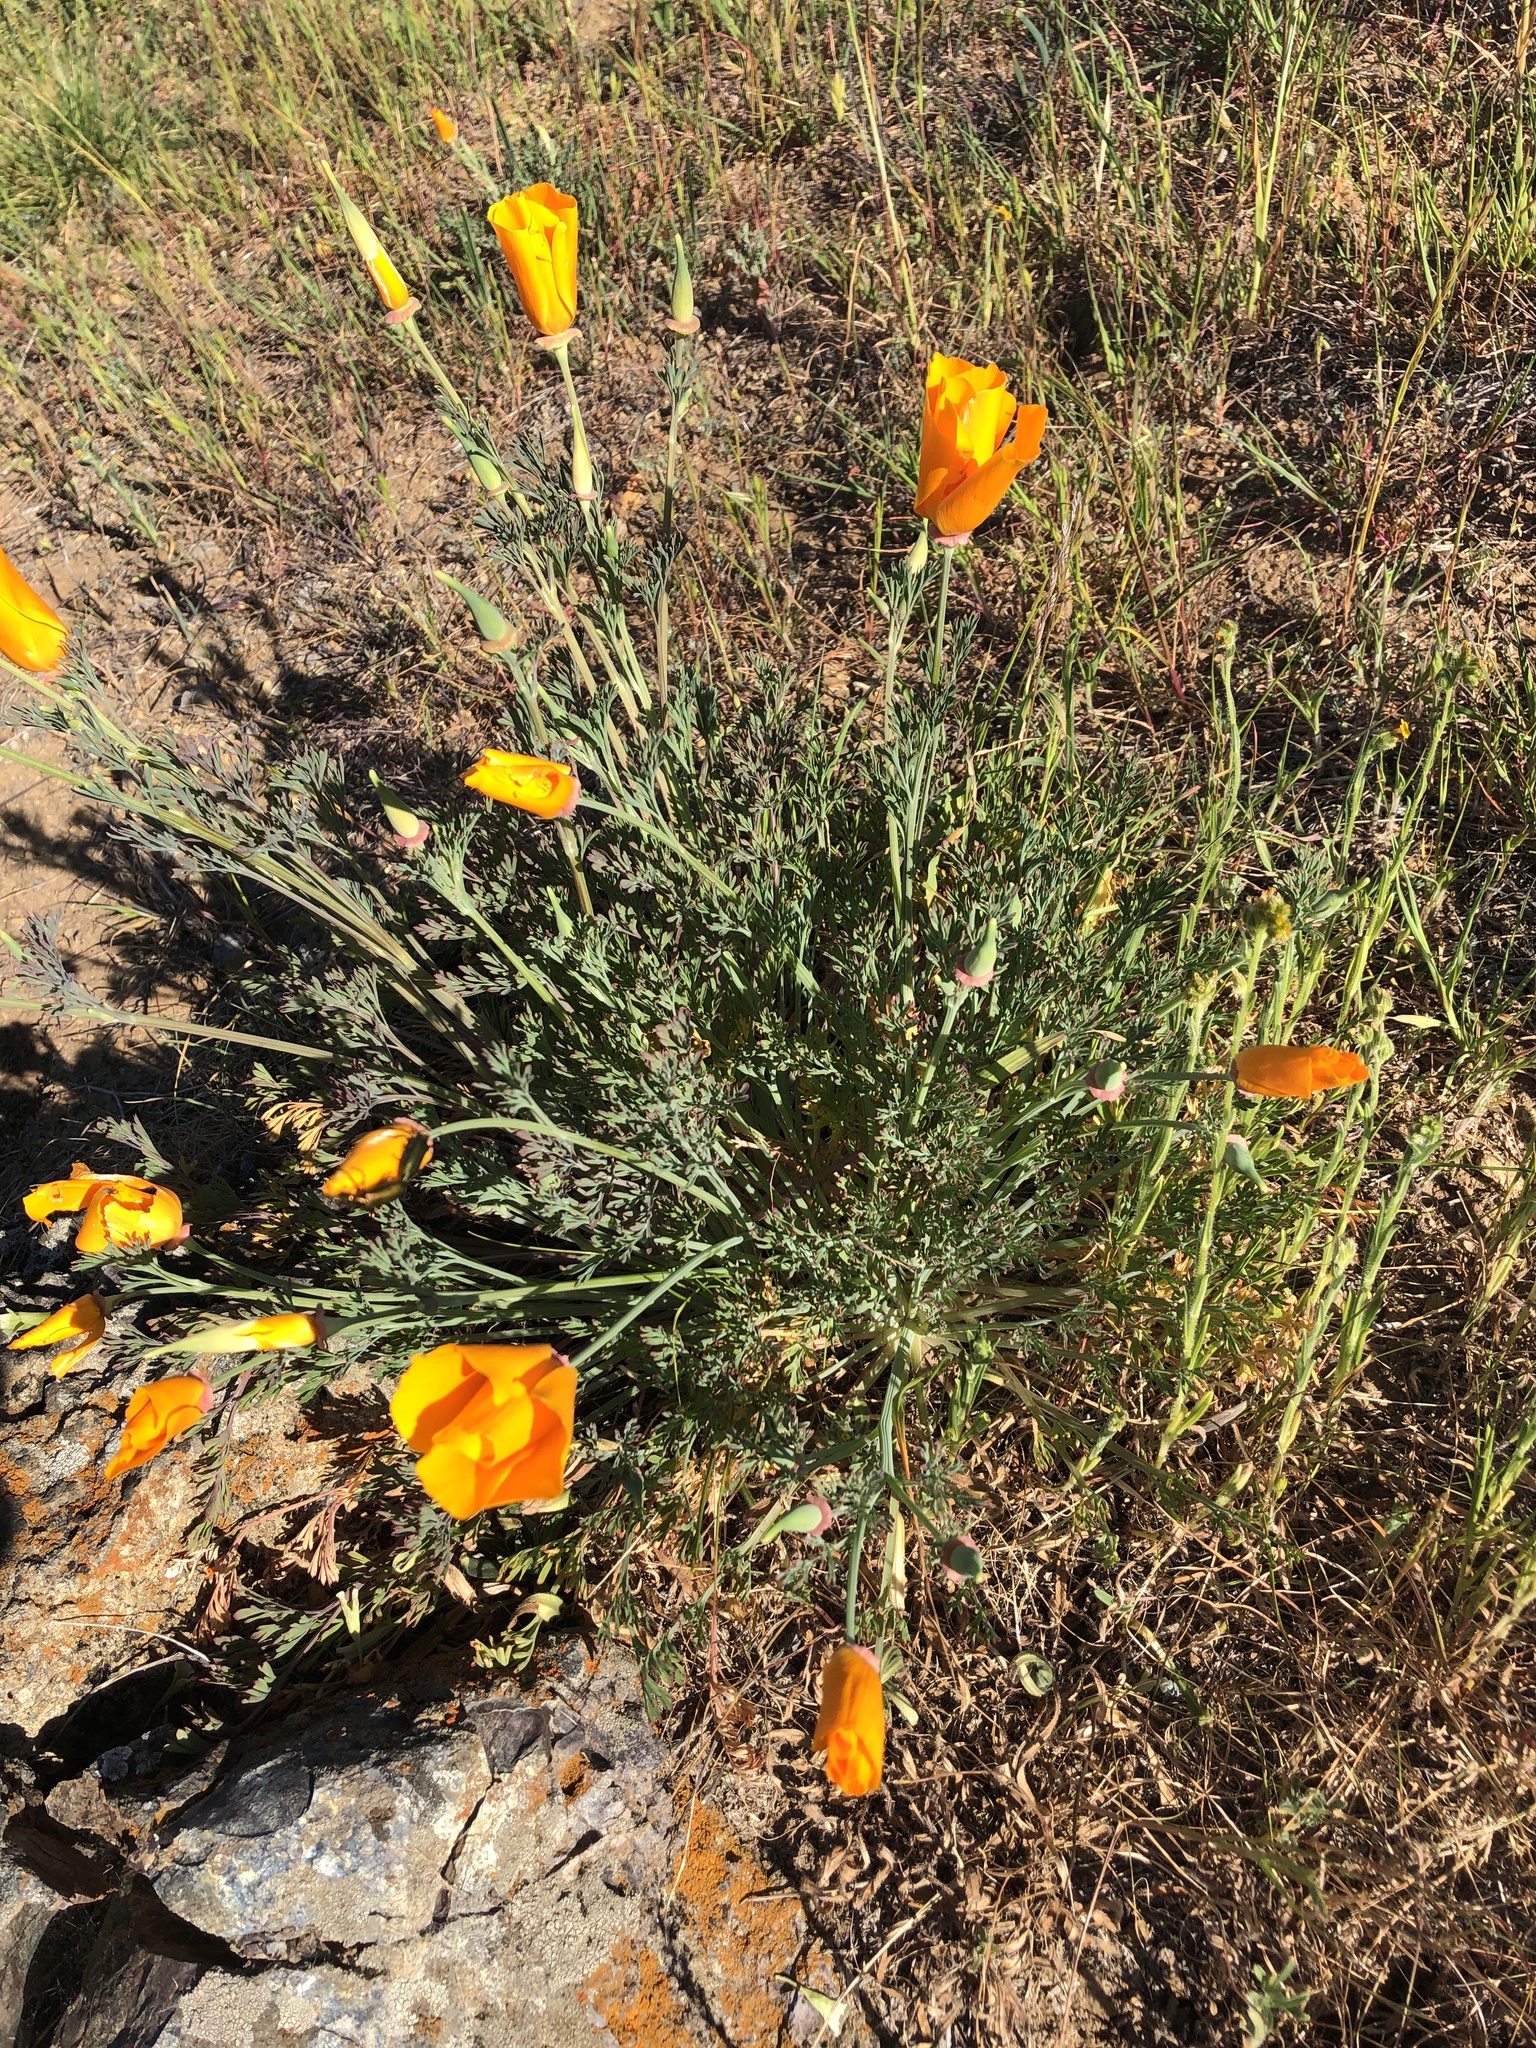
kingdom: Plantae
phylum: Tracheophyta
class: Magnoliopsida
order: Ranunculales
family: Papaveraceae
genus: Eschscholzia
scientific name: Eschscholzia californica
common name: California poppy
